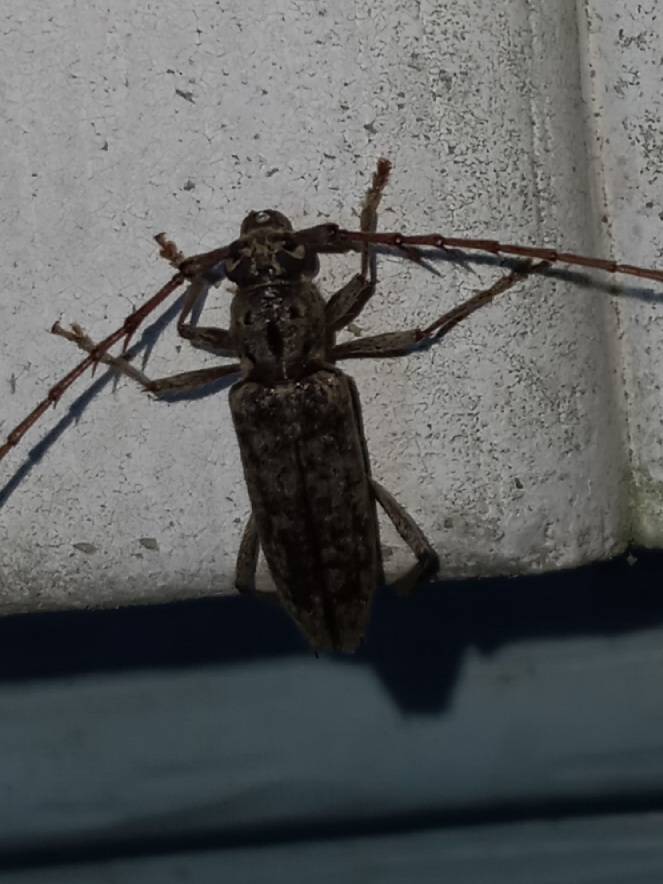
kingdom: Animalia
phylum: Arthropoda
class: Insecta
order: Coleoptera
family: Cerambycidae
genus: Elaphidion
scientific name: Elaphidion mucronatum
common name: Spined oak borer
